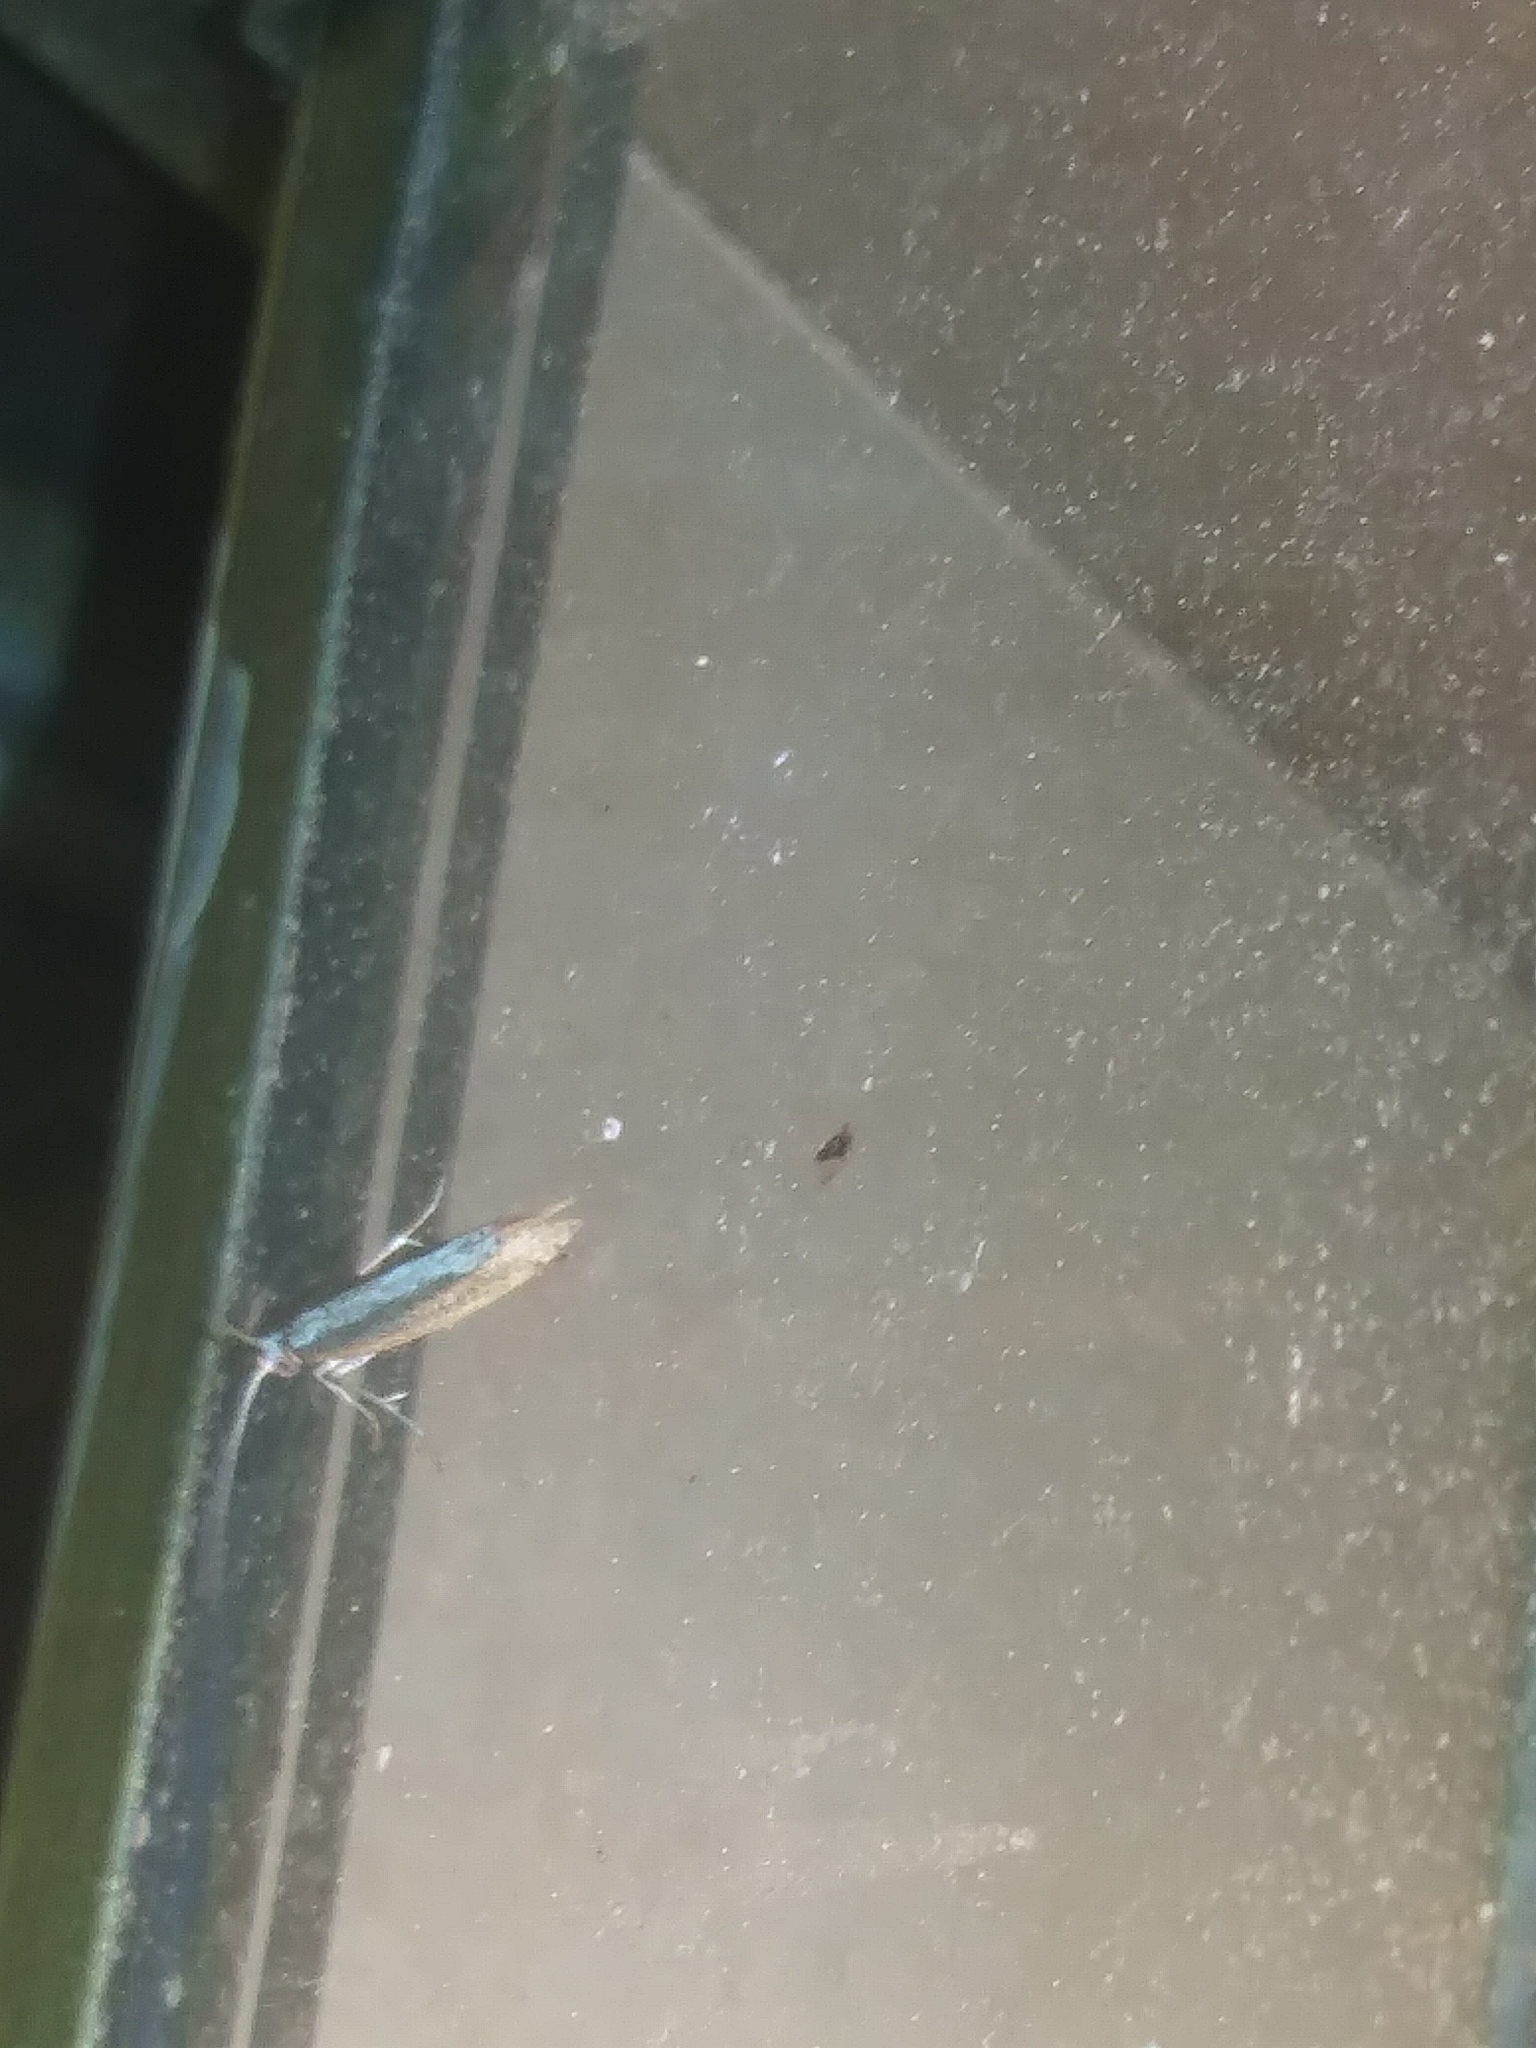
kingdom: Animalia
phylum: Arthropoda
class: Insecta
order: Lepidoptera
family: Plutellidae
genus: Plutella
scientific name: Plutella xylostella
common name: Diamond-back moth
